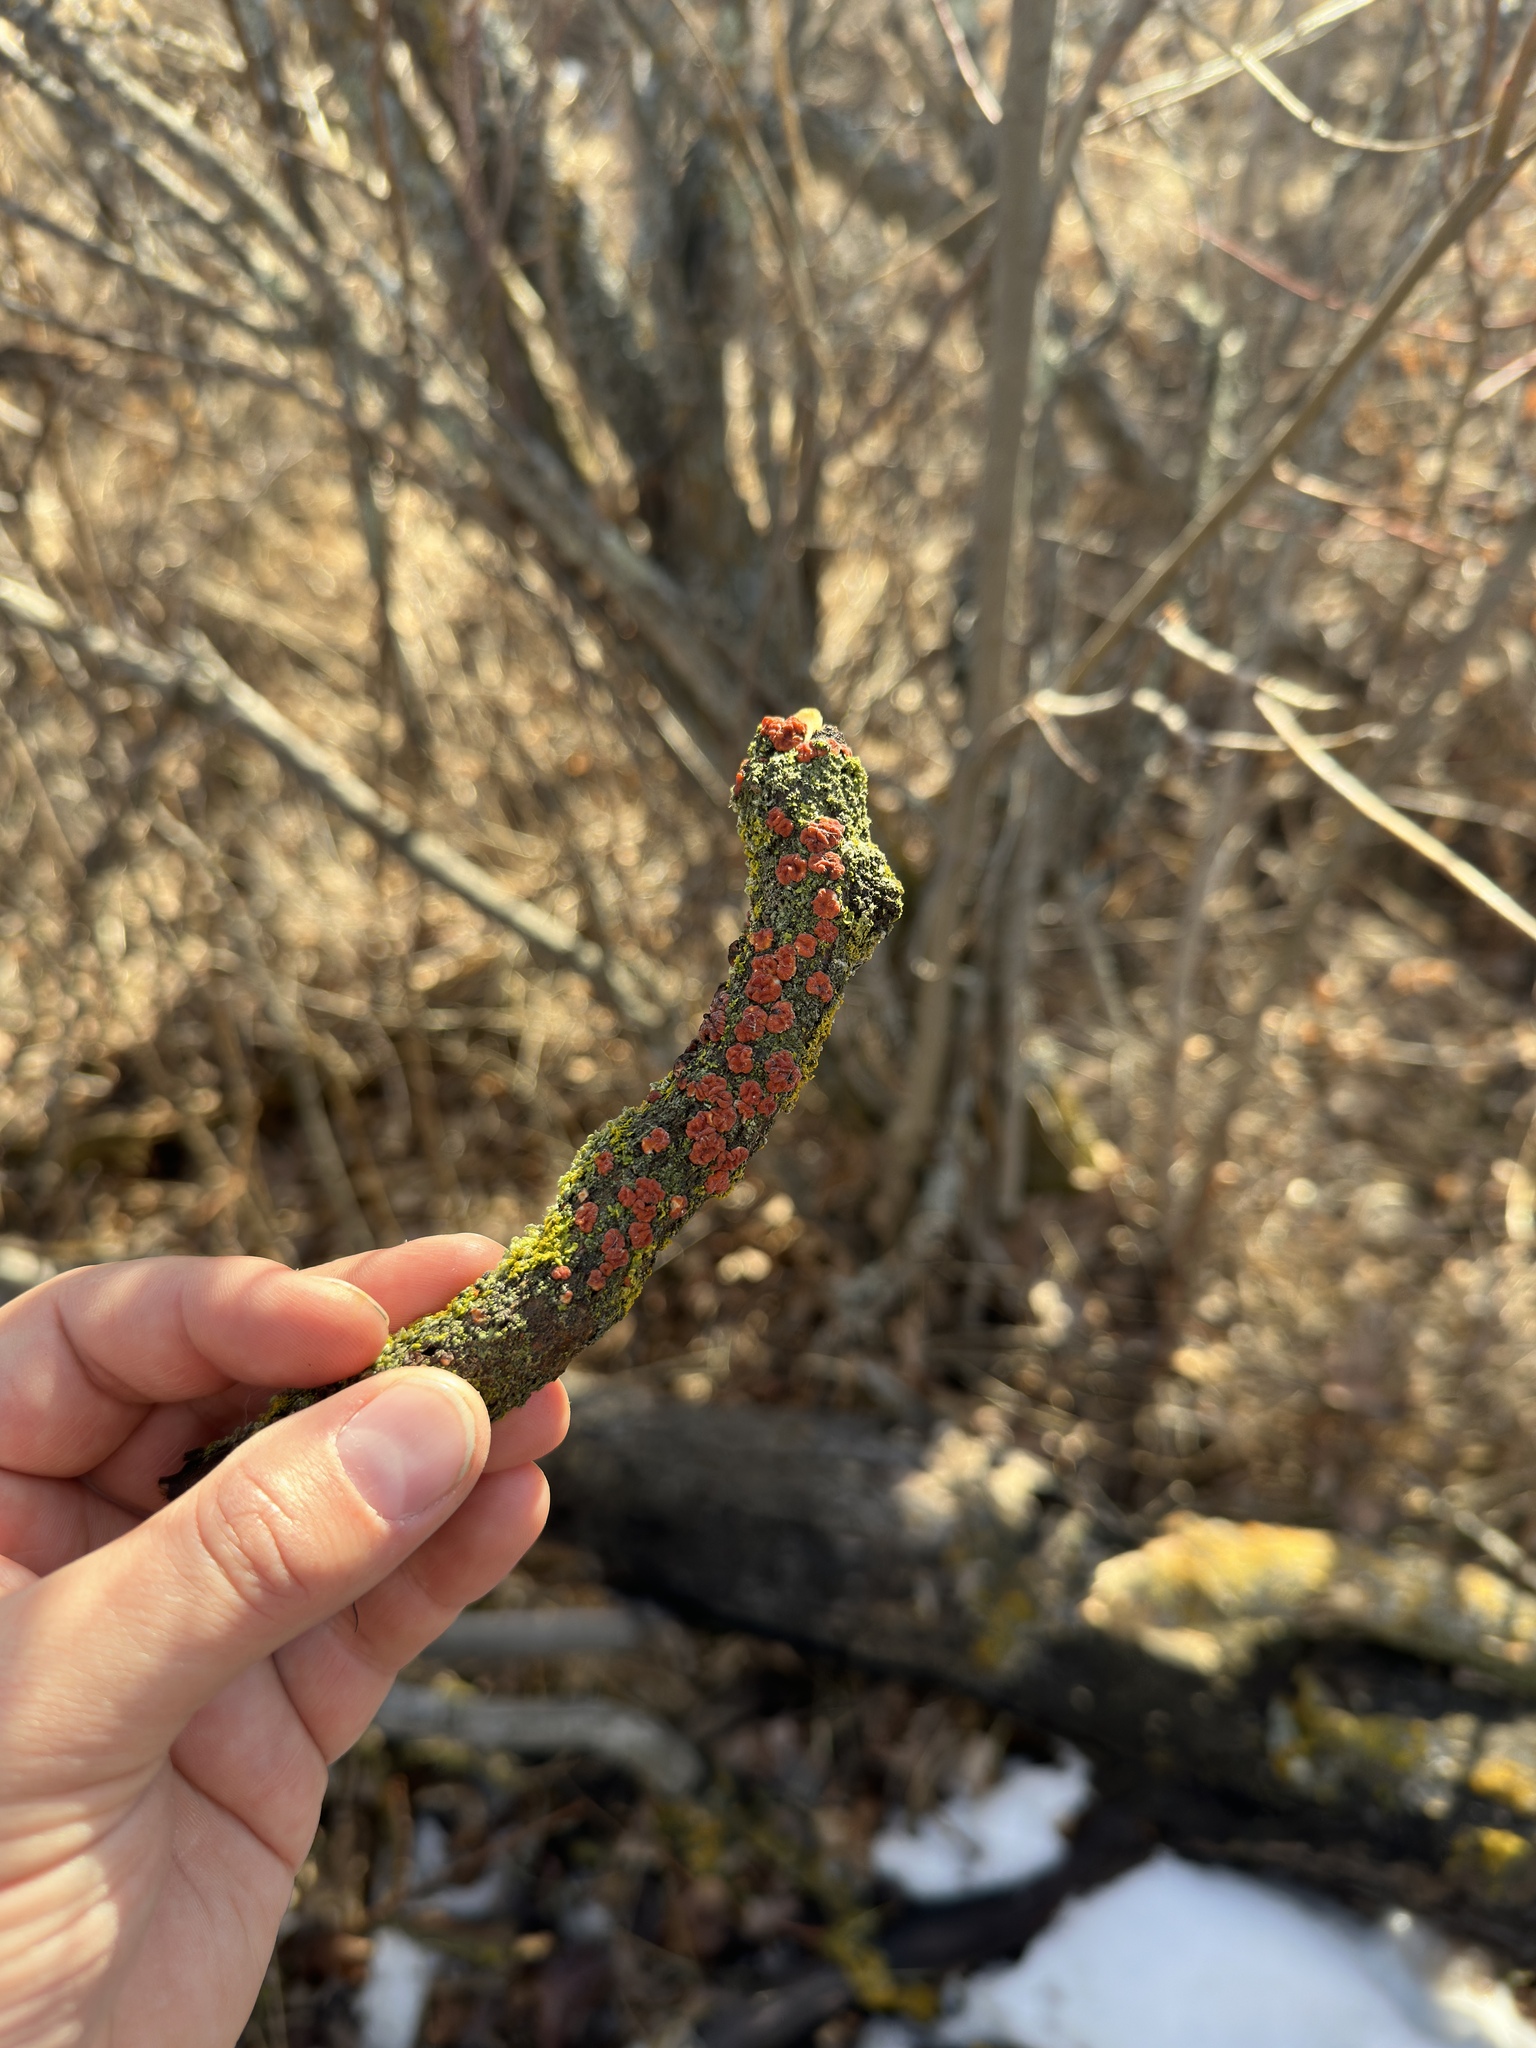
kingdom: Fungi
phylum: Basidiomycota
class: Agaricomycetes
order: Russulales
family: Peniophoraceae
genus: Peniophora
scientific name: Peniophora rufa
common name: Red tree brain fungus
